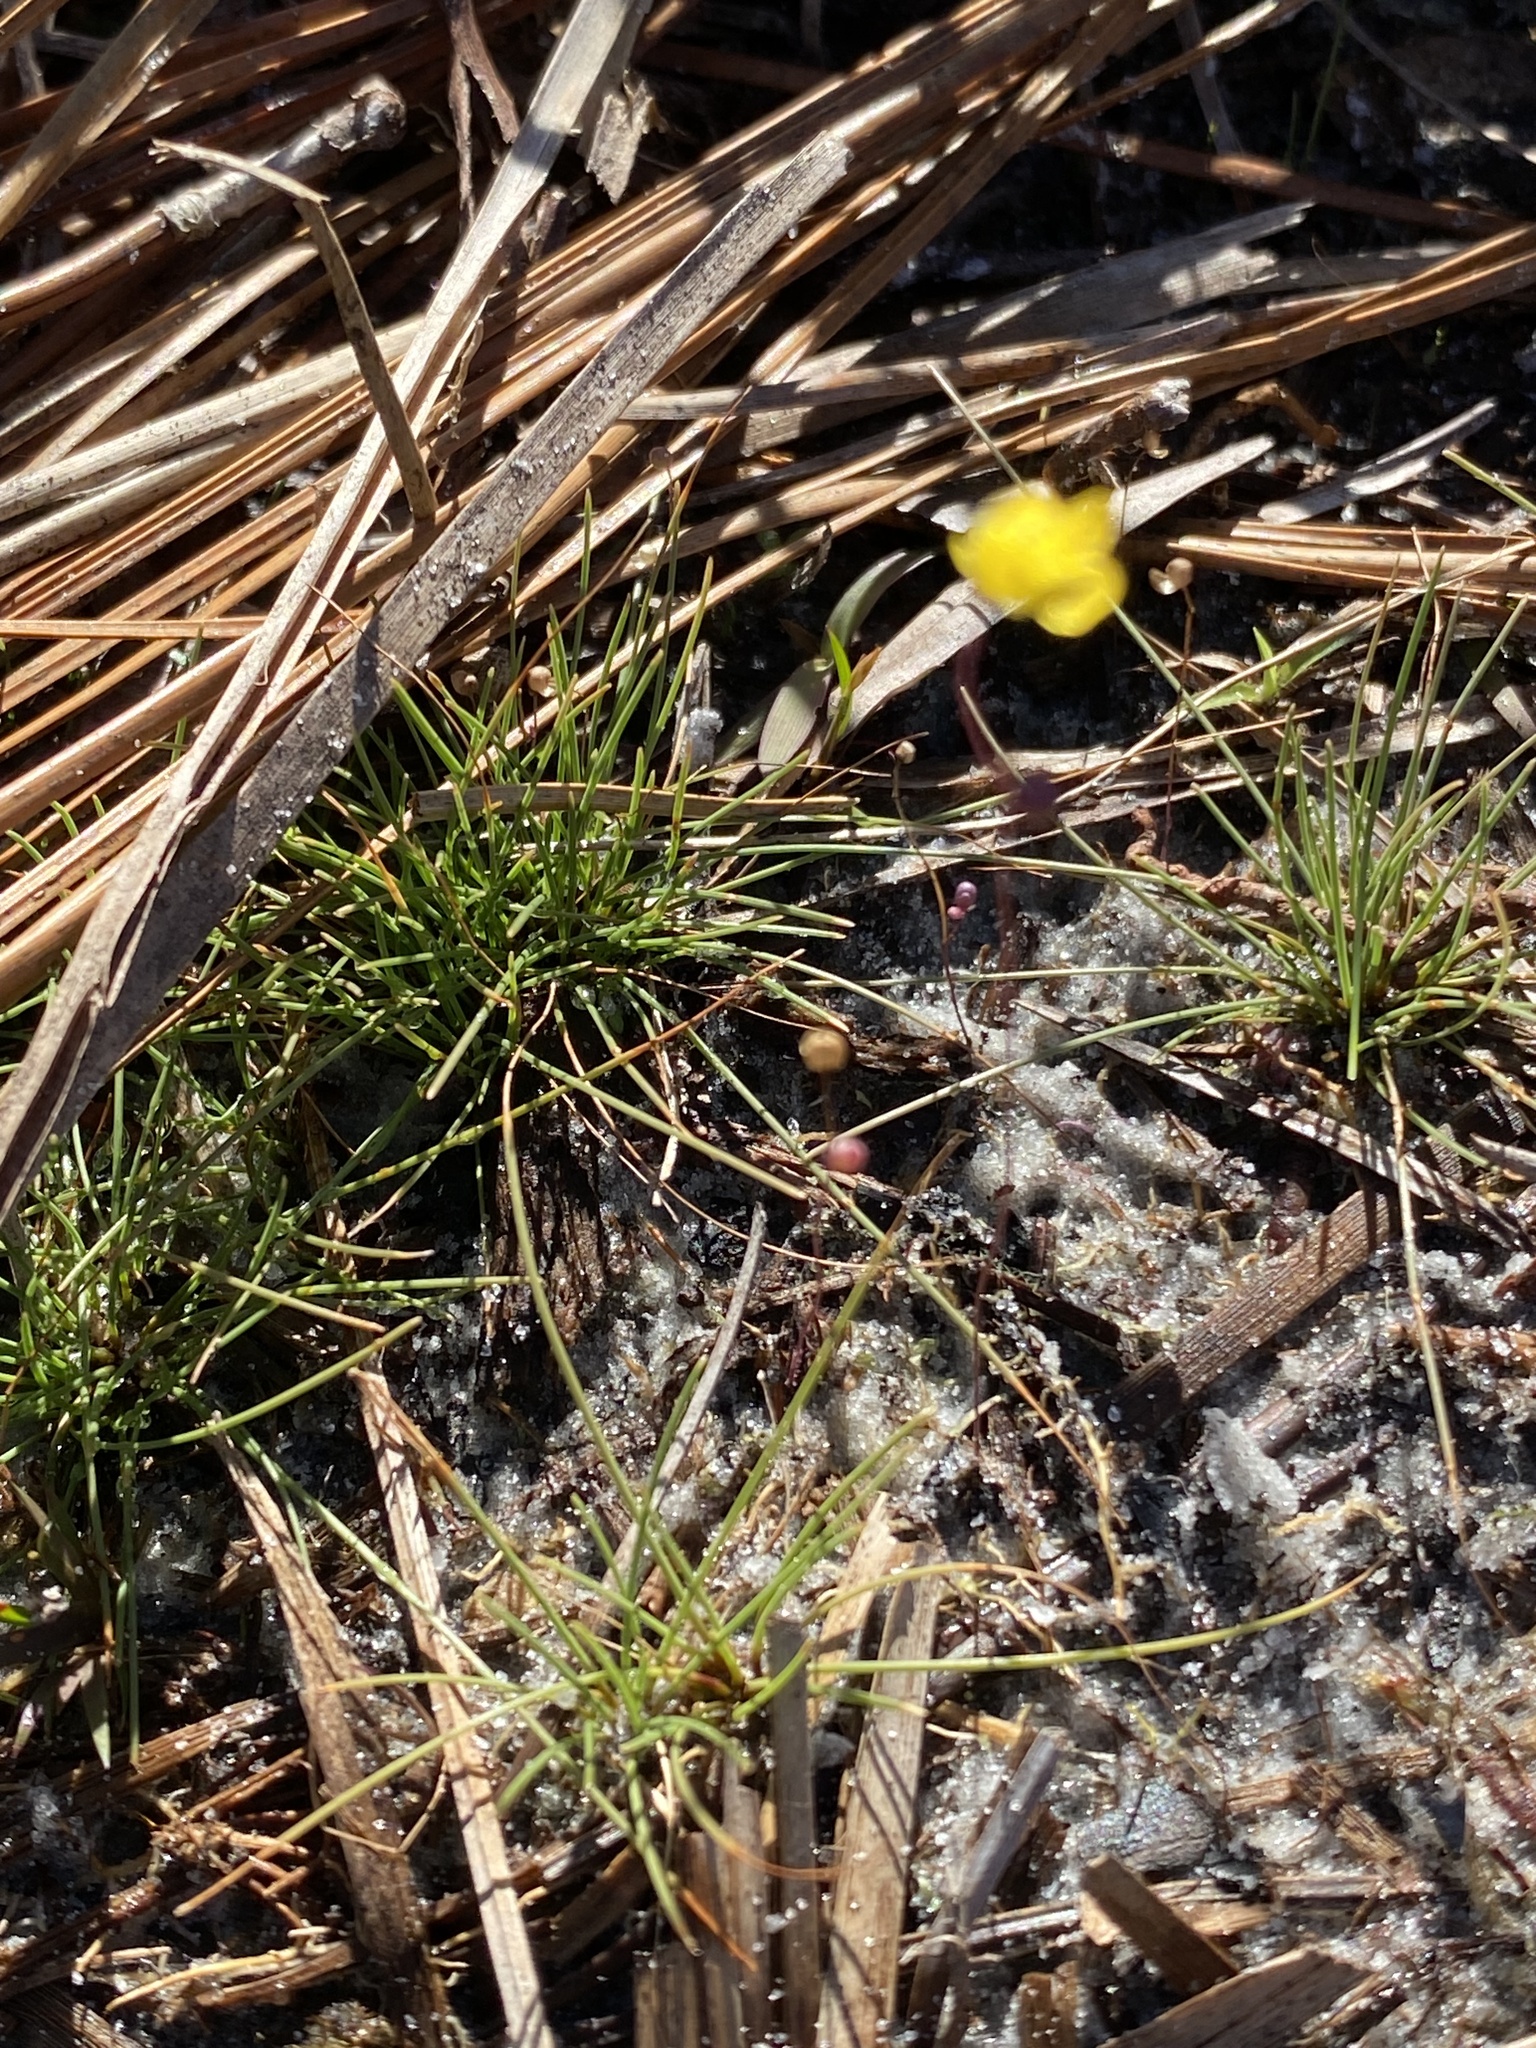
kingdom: Plantae
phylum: Tracheophyta
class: Magnoliopsida
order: Lamiales
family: Lentibulariaceae
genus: Utricularia
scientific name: Utricularia subulata
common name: Tiny bladderwort
